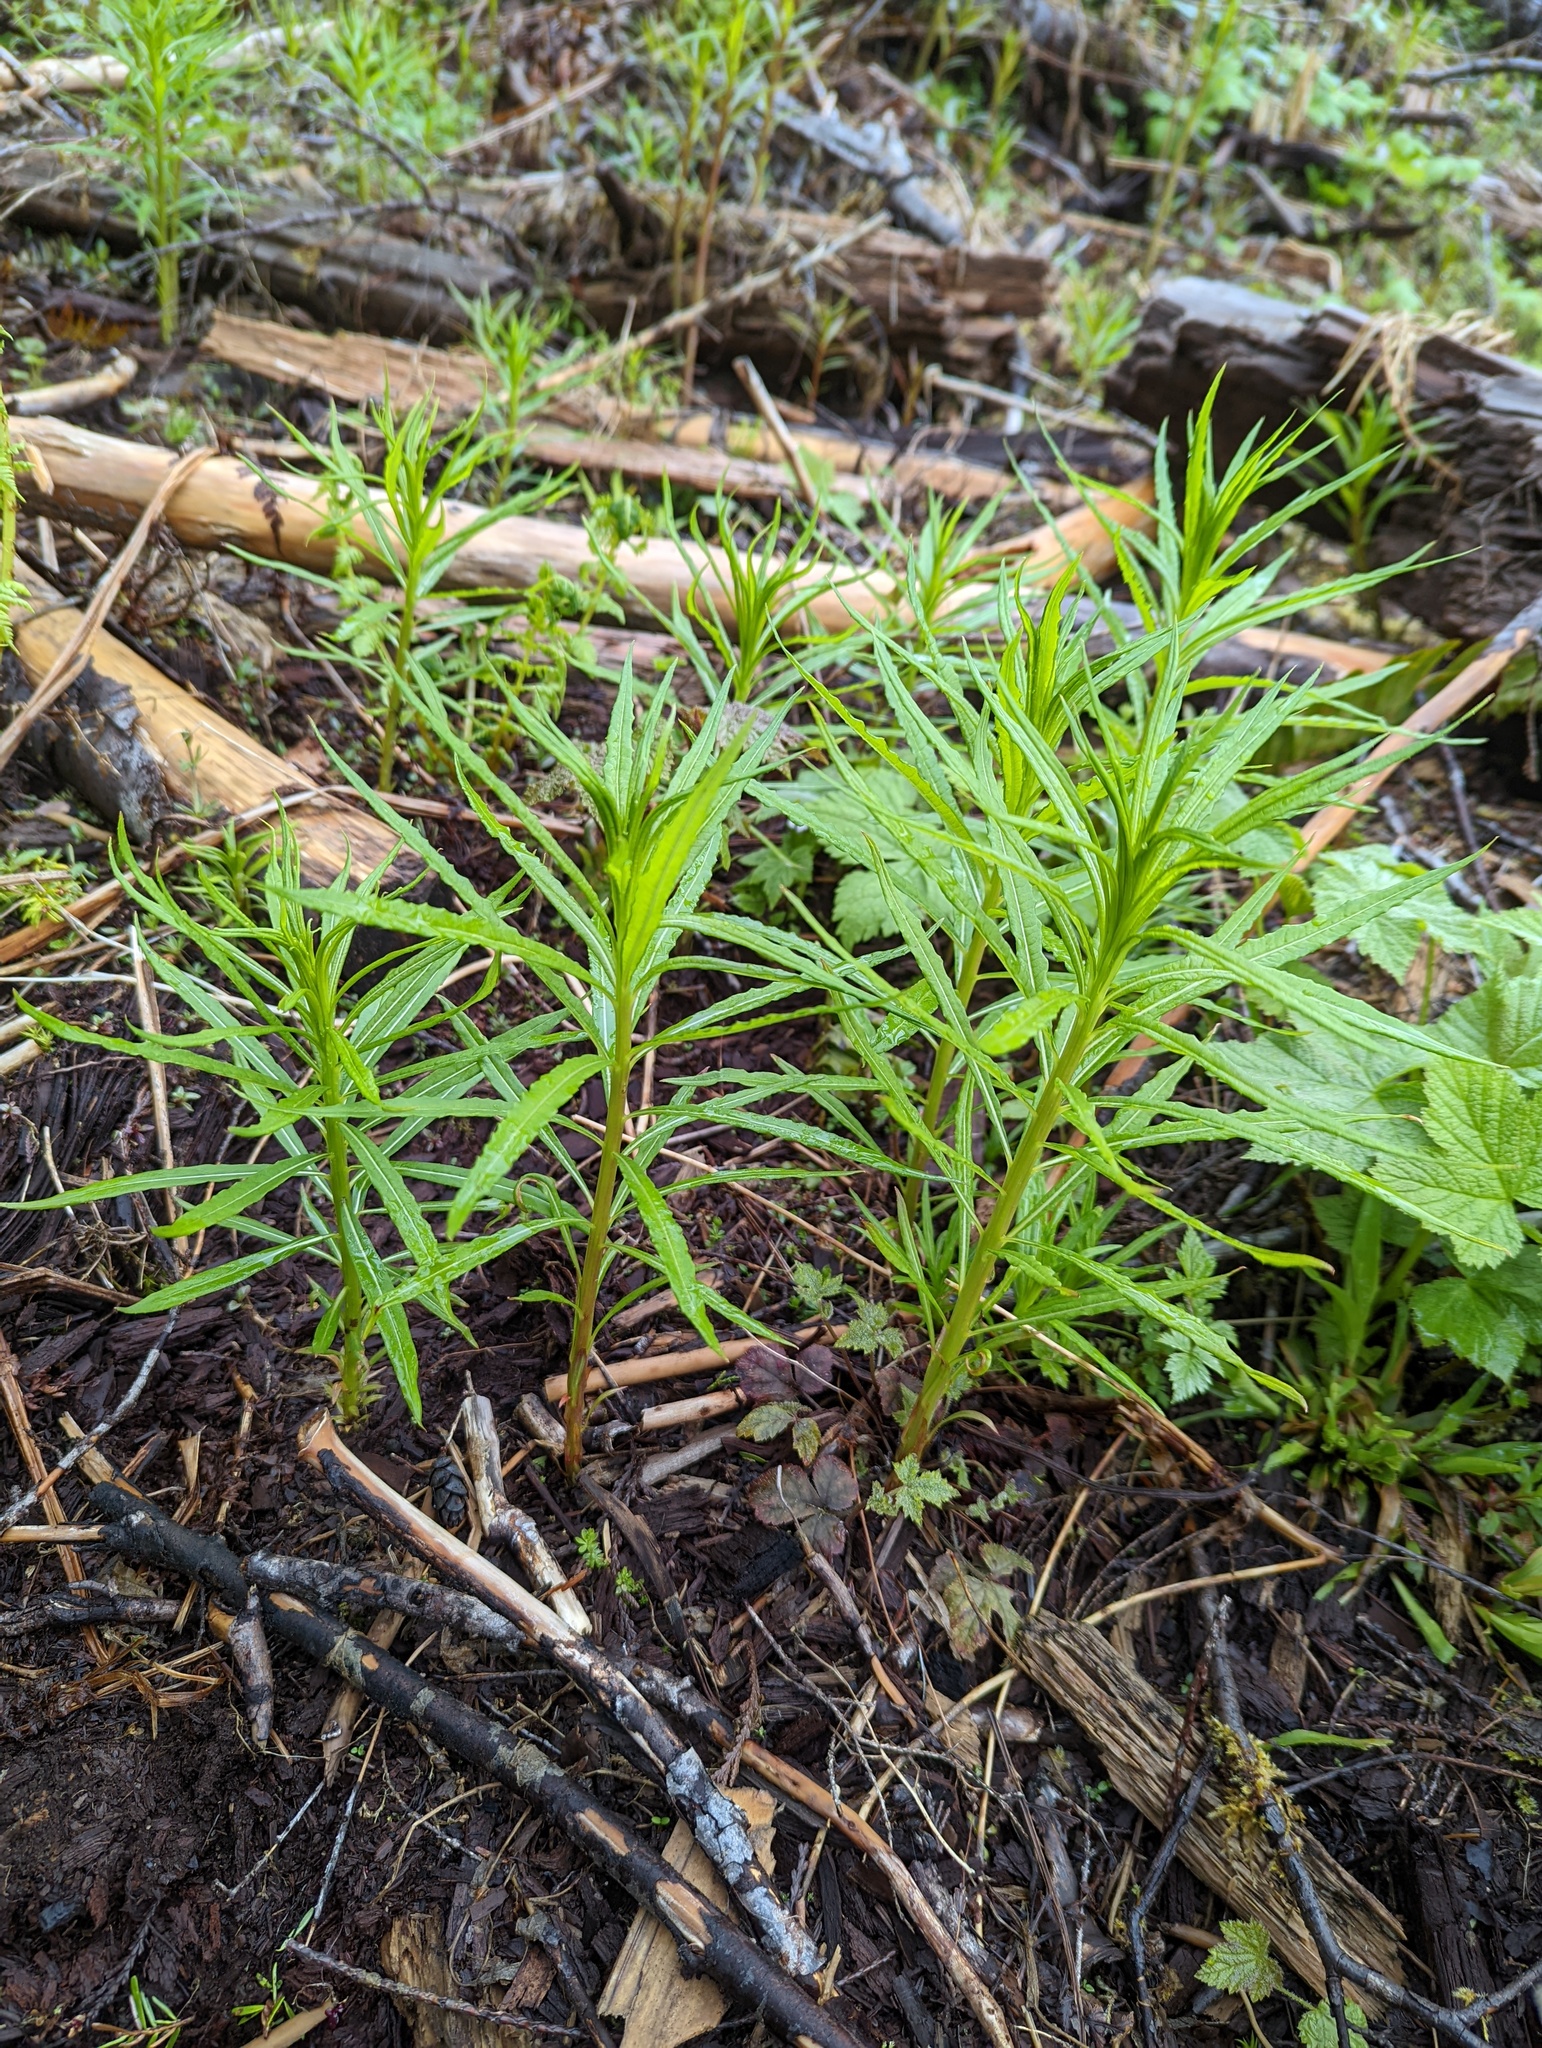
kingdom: Plantae
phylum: Tracheophyta
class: Magnoliopsida
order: Myrtales
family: Onagraceae
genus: Chamaenerion
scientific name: Chamaenerion angustifolium
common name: Fireweed
